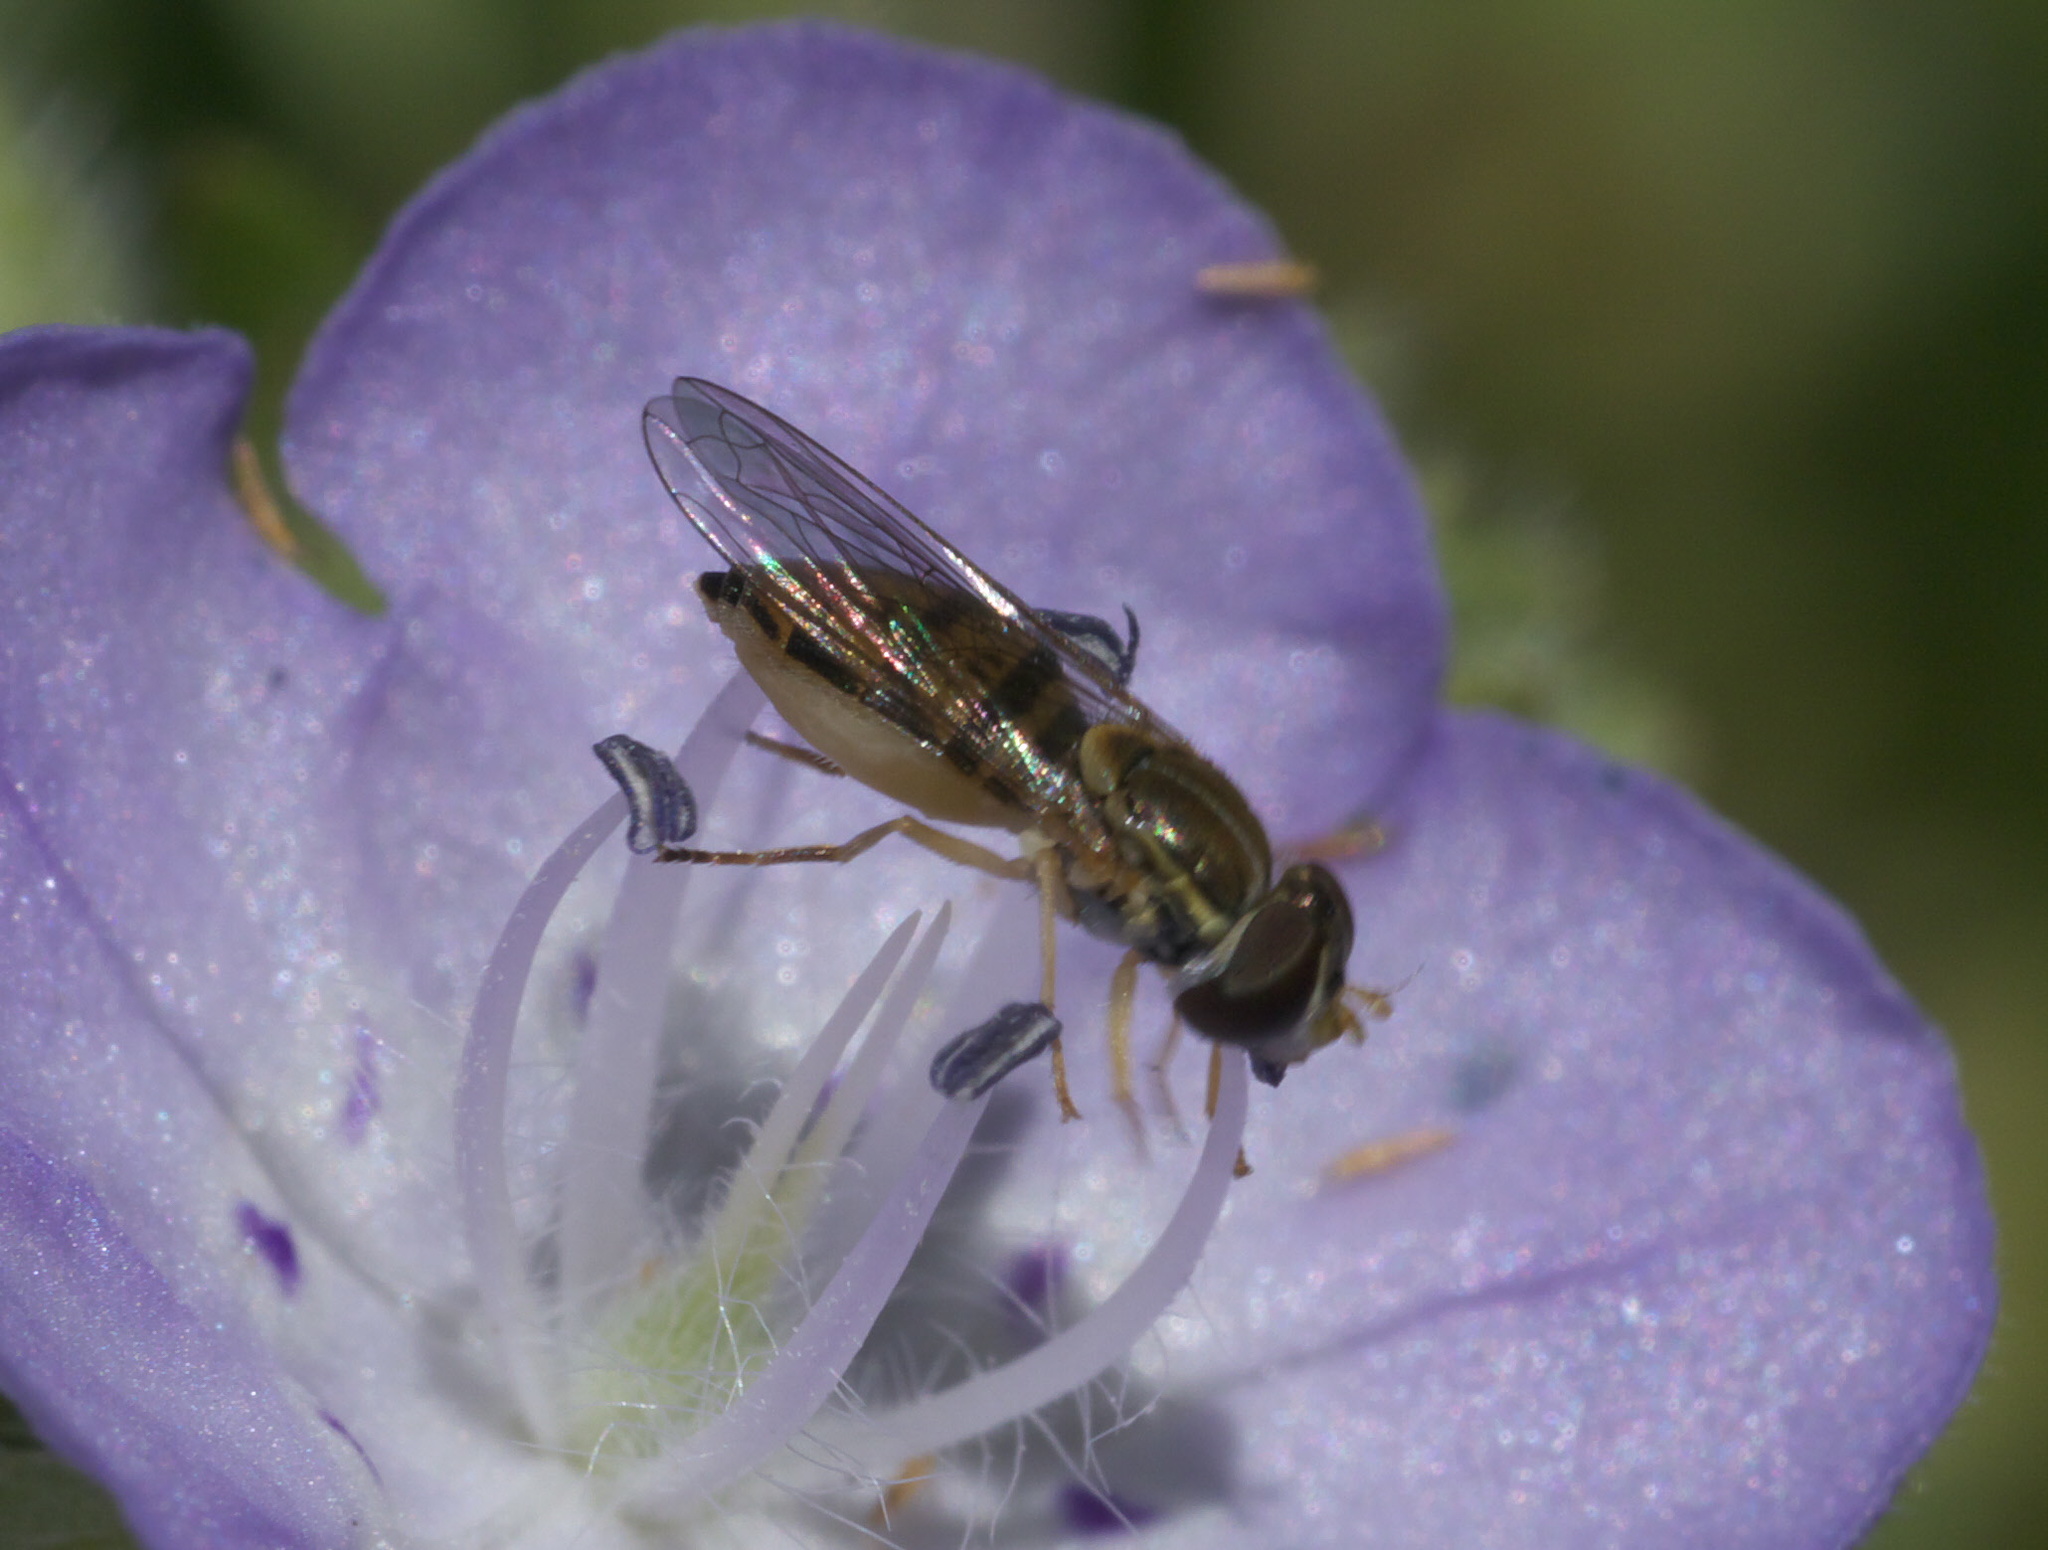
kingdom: Animalia
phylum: Arthropoda
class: Insecta
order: Diptera
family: Syrphidae
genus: Toxomerus
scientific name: Toxomerus marginatus
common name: Syrphid fly
